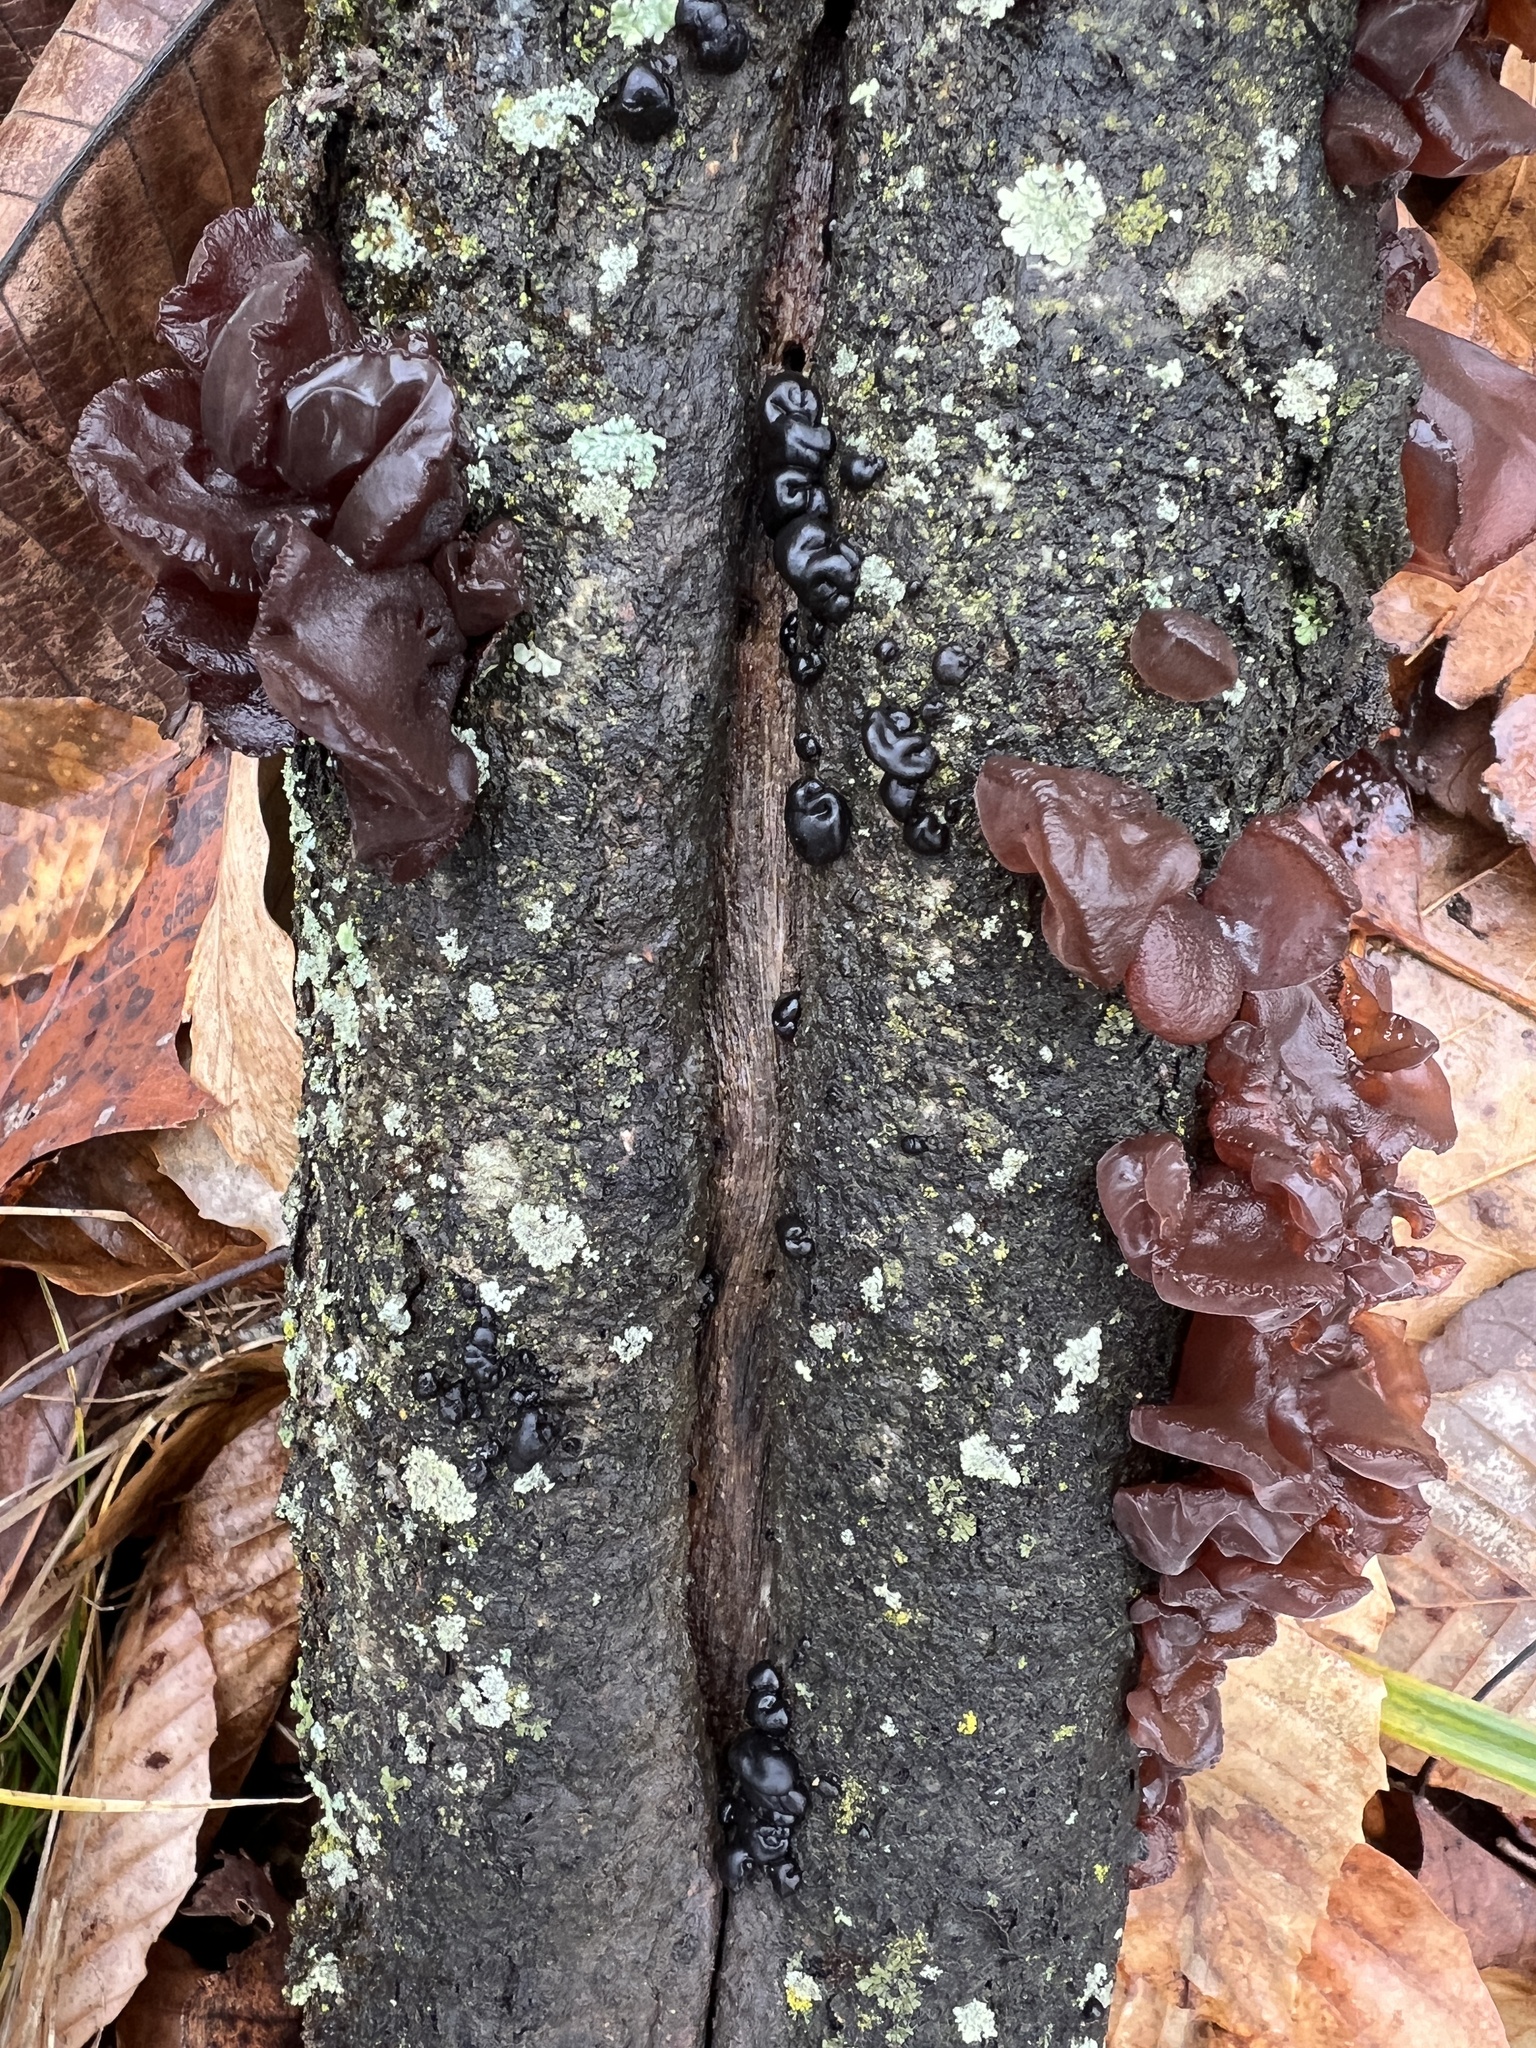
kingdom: Fungi
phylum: Basidiomycota
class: Agaricomycetes
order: Auriculariales
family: Auriculariaceae
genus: Exidia
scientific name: Exidia nigricans
